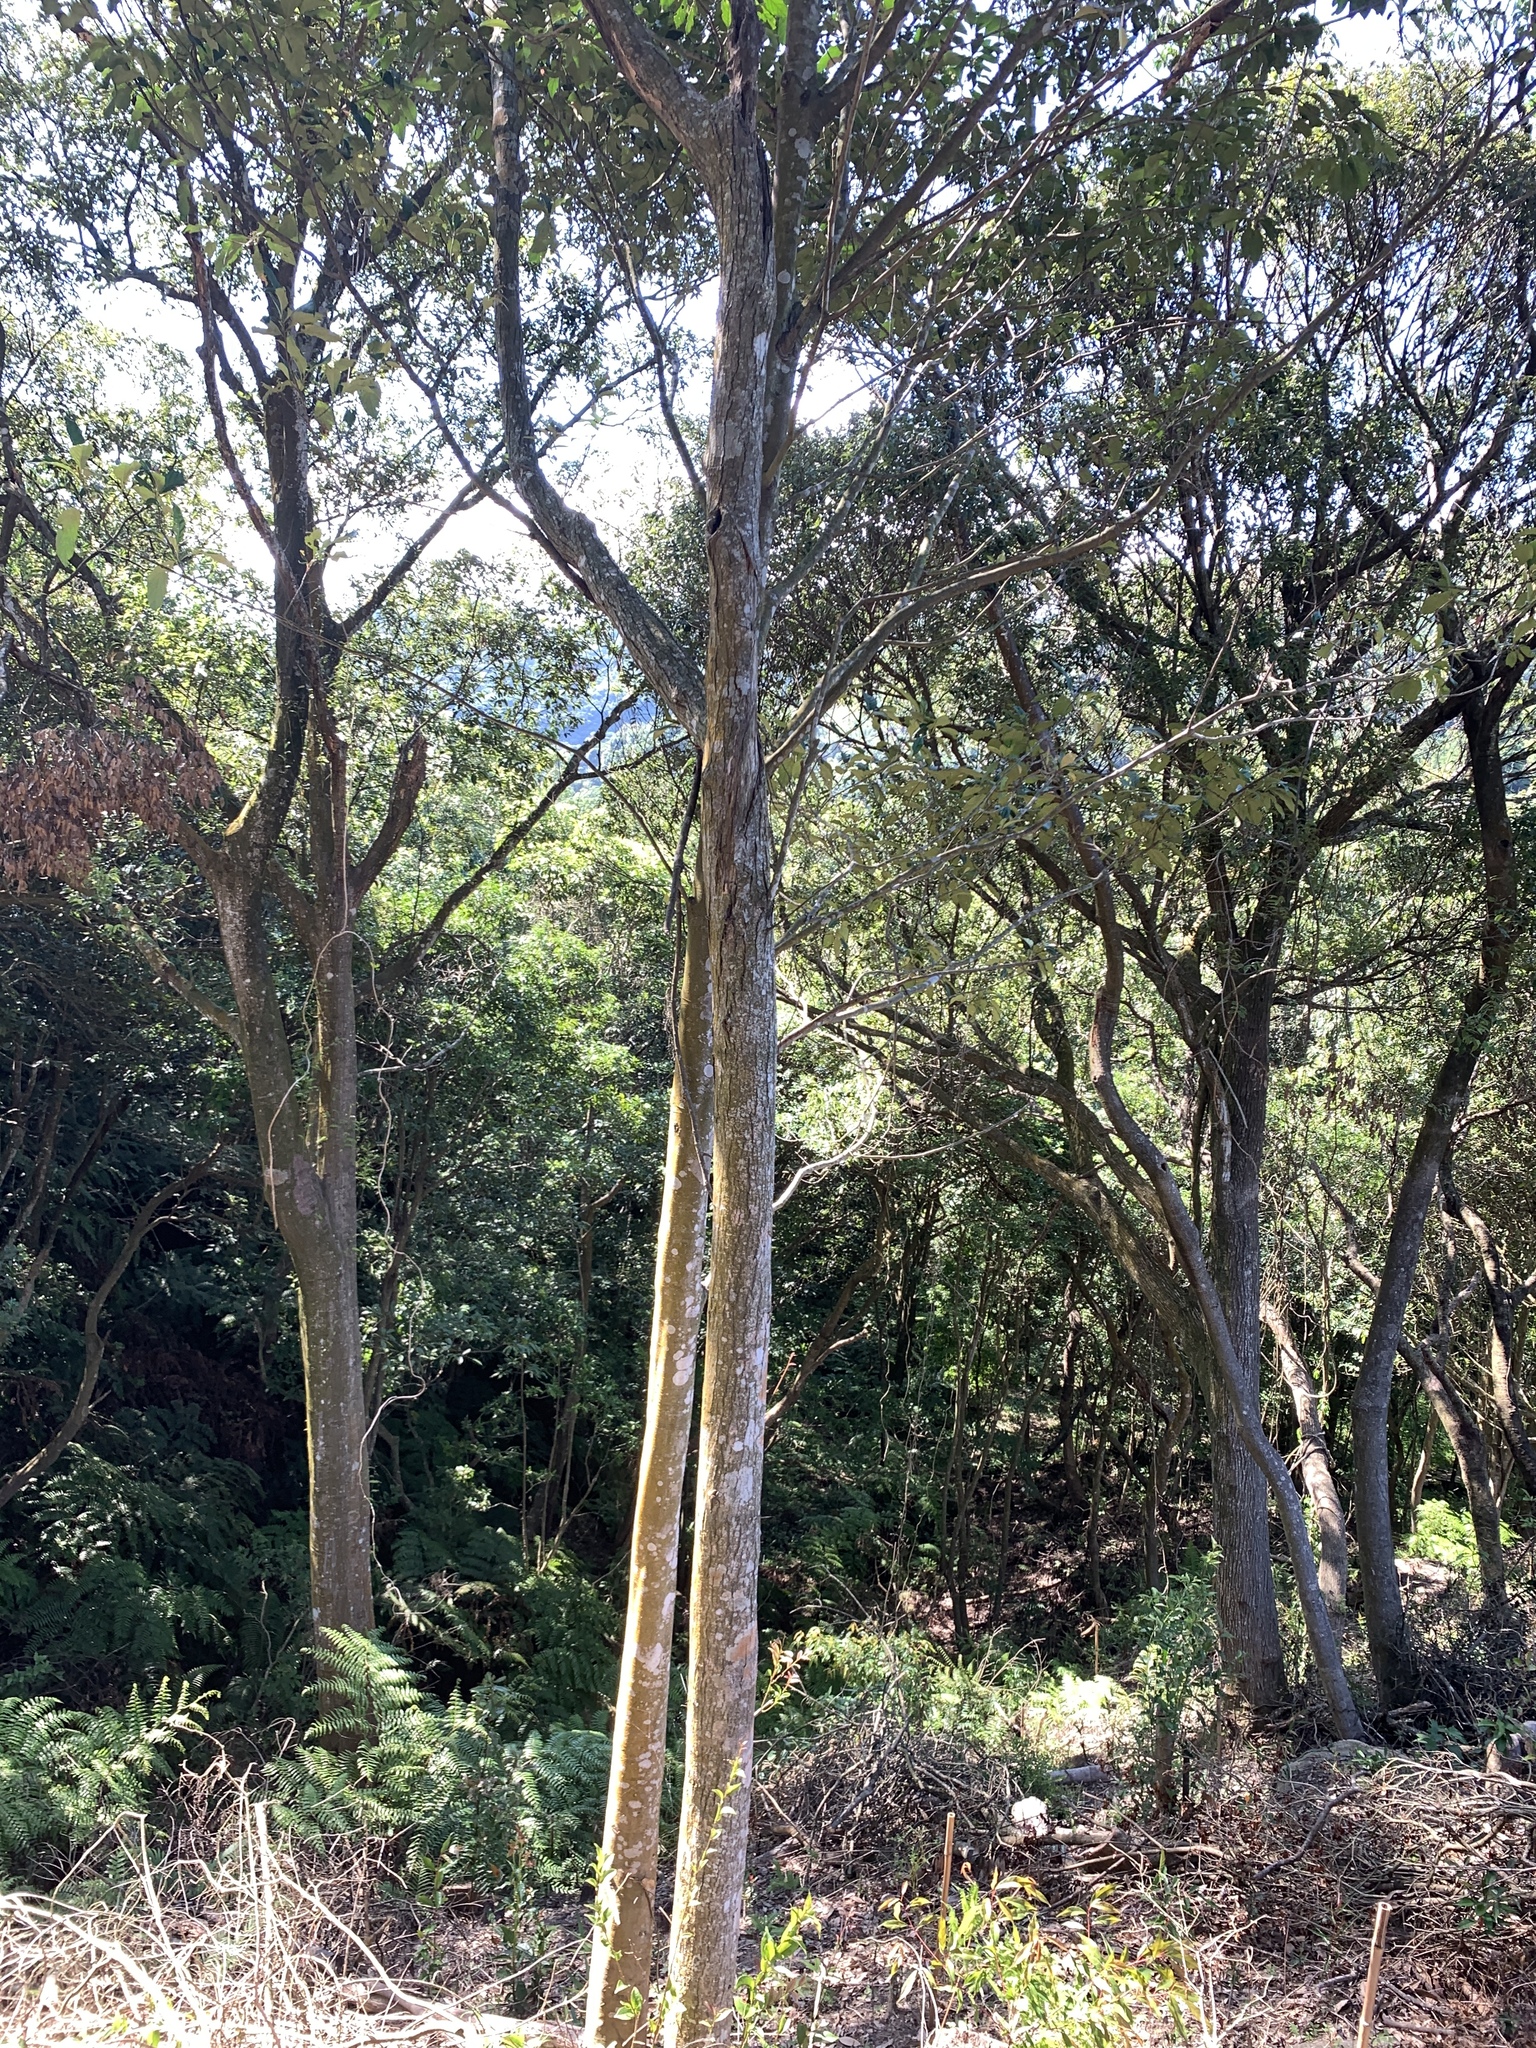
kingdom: Plantae
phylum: Tracheophyta
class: Magnoliopsida
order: Fagales
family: Fagaceae
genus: Castanopsis
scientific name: Castanopsis carlesii
